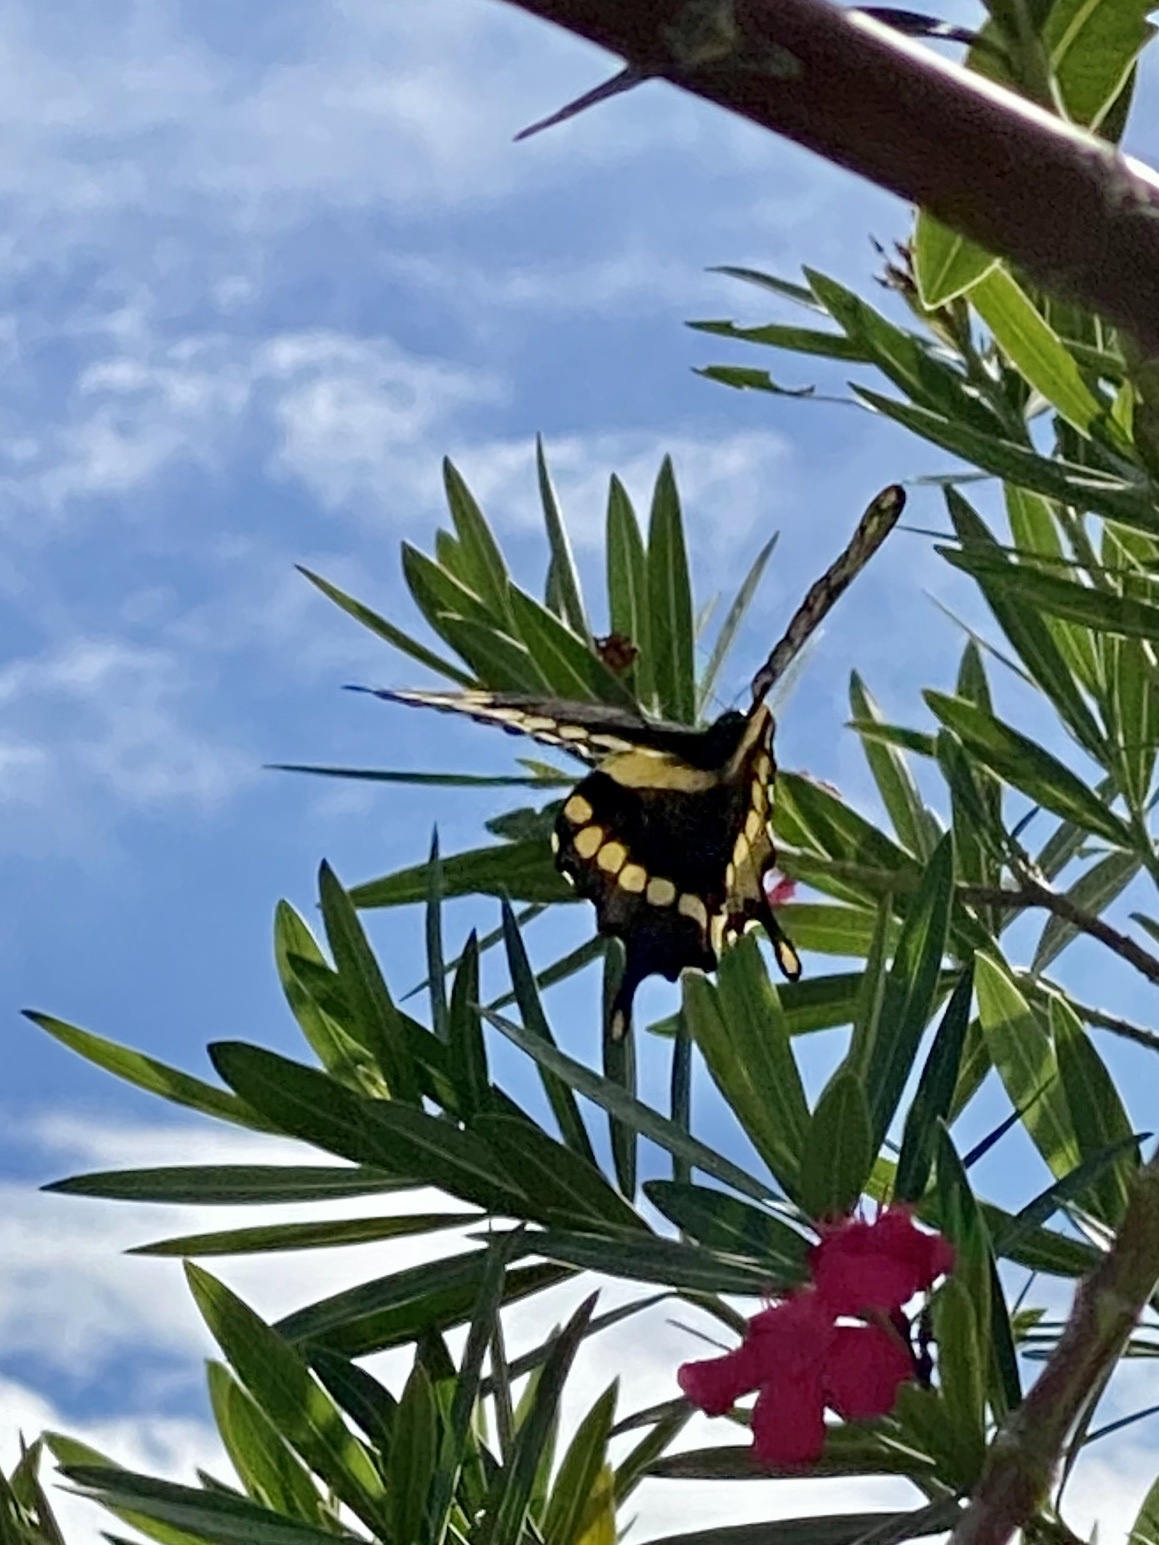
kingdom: Animalia
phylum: Arthropoda
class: Insecta
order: Lepidoptera
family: Papilionidae
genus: Papilio
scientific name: Papilio cresphontes
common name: Giant swallowtail
